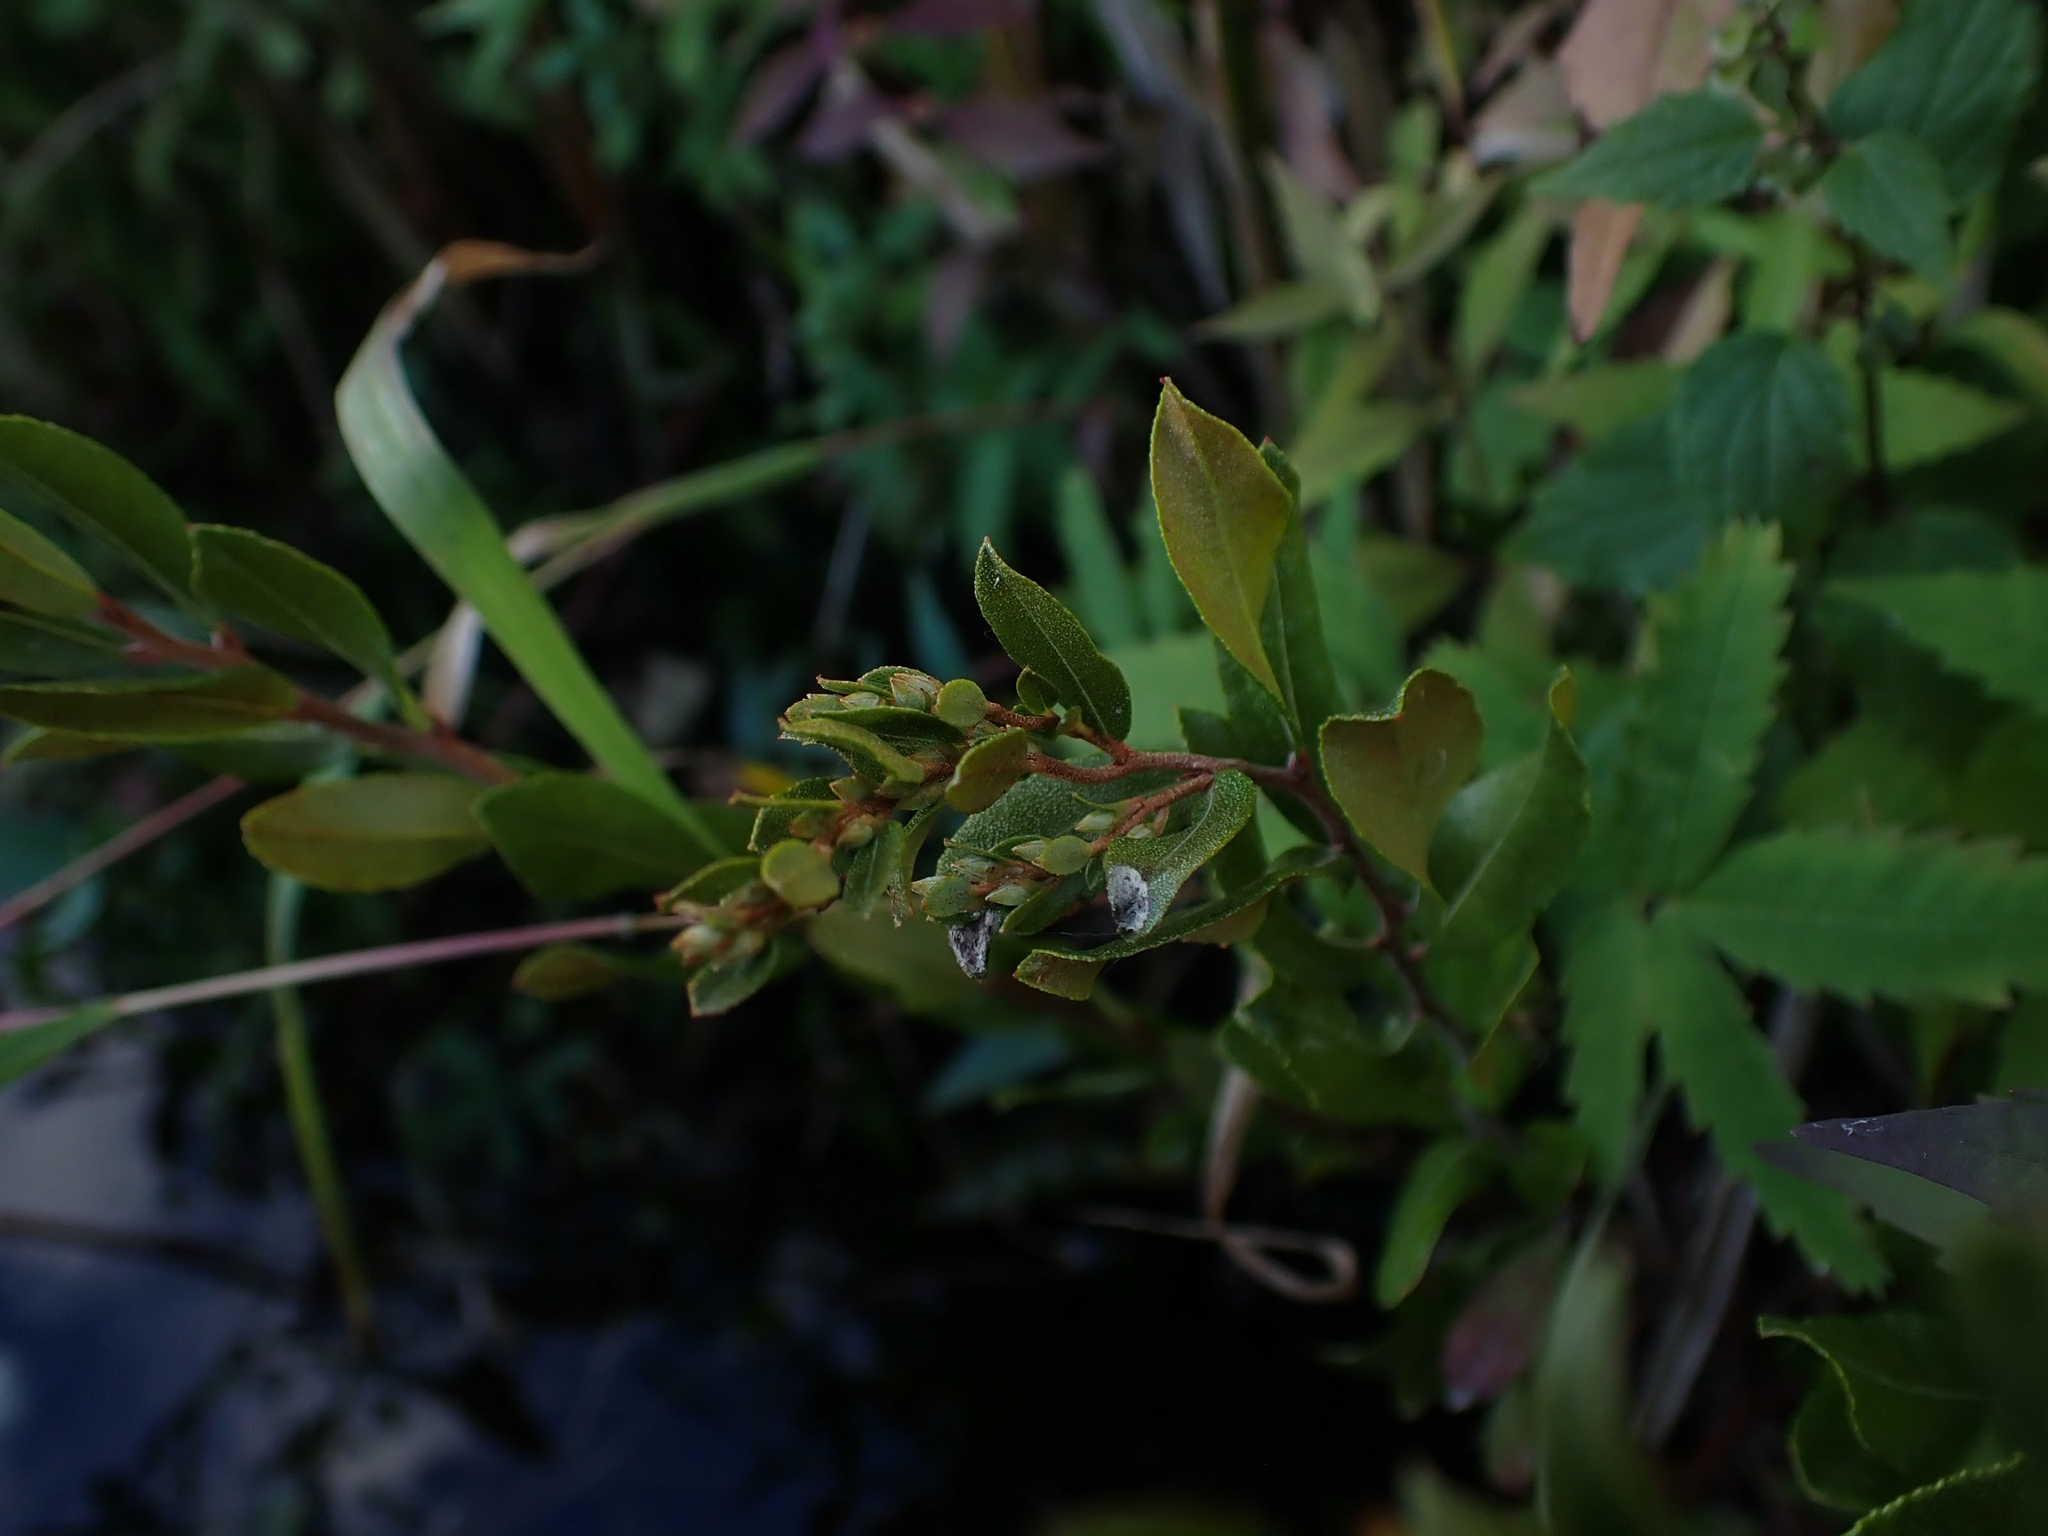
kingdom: Plantae
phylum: Tracheophyta
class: Magnoliopsida
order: Ericales
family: Ericaceae
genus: Chamaedaphne
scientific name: Chamaedaphne calyculata
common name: Leatherleaf
